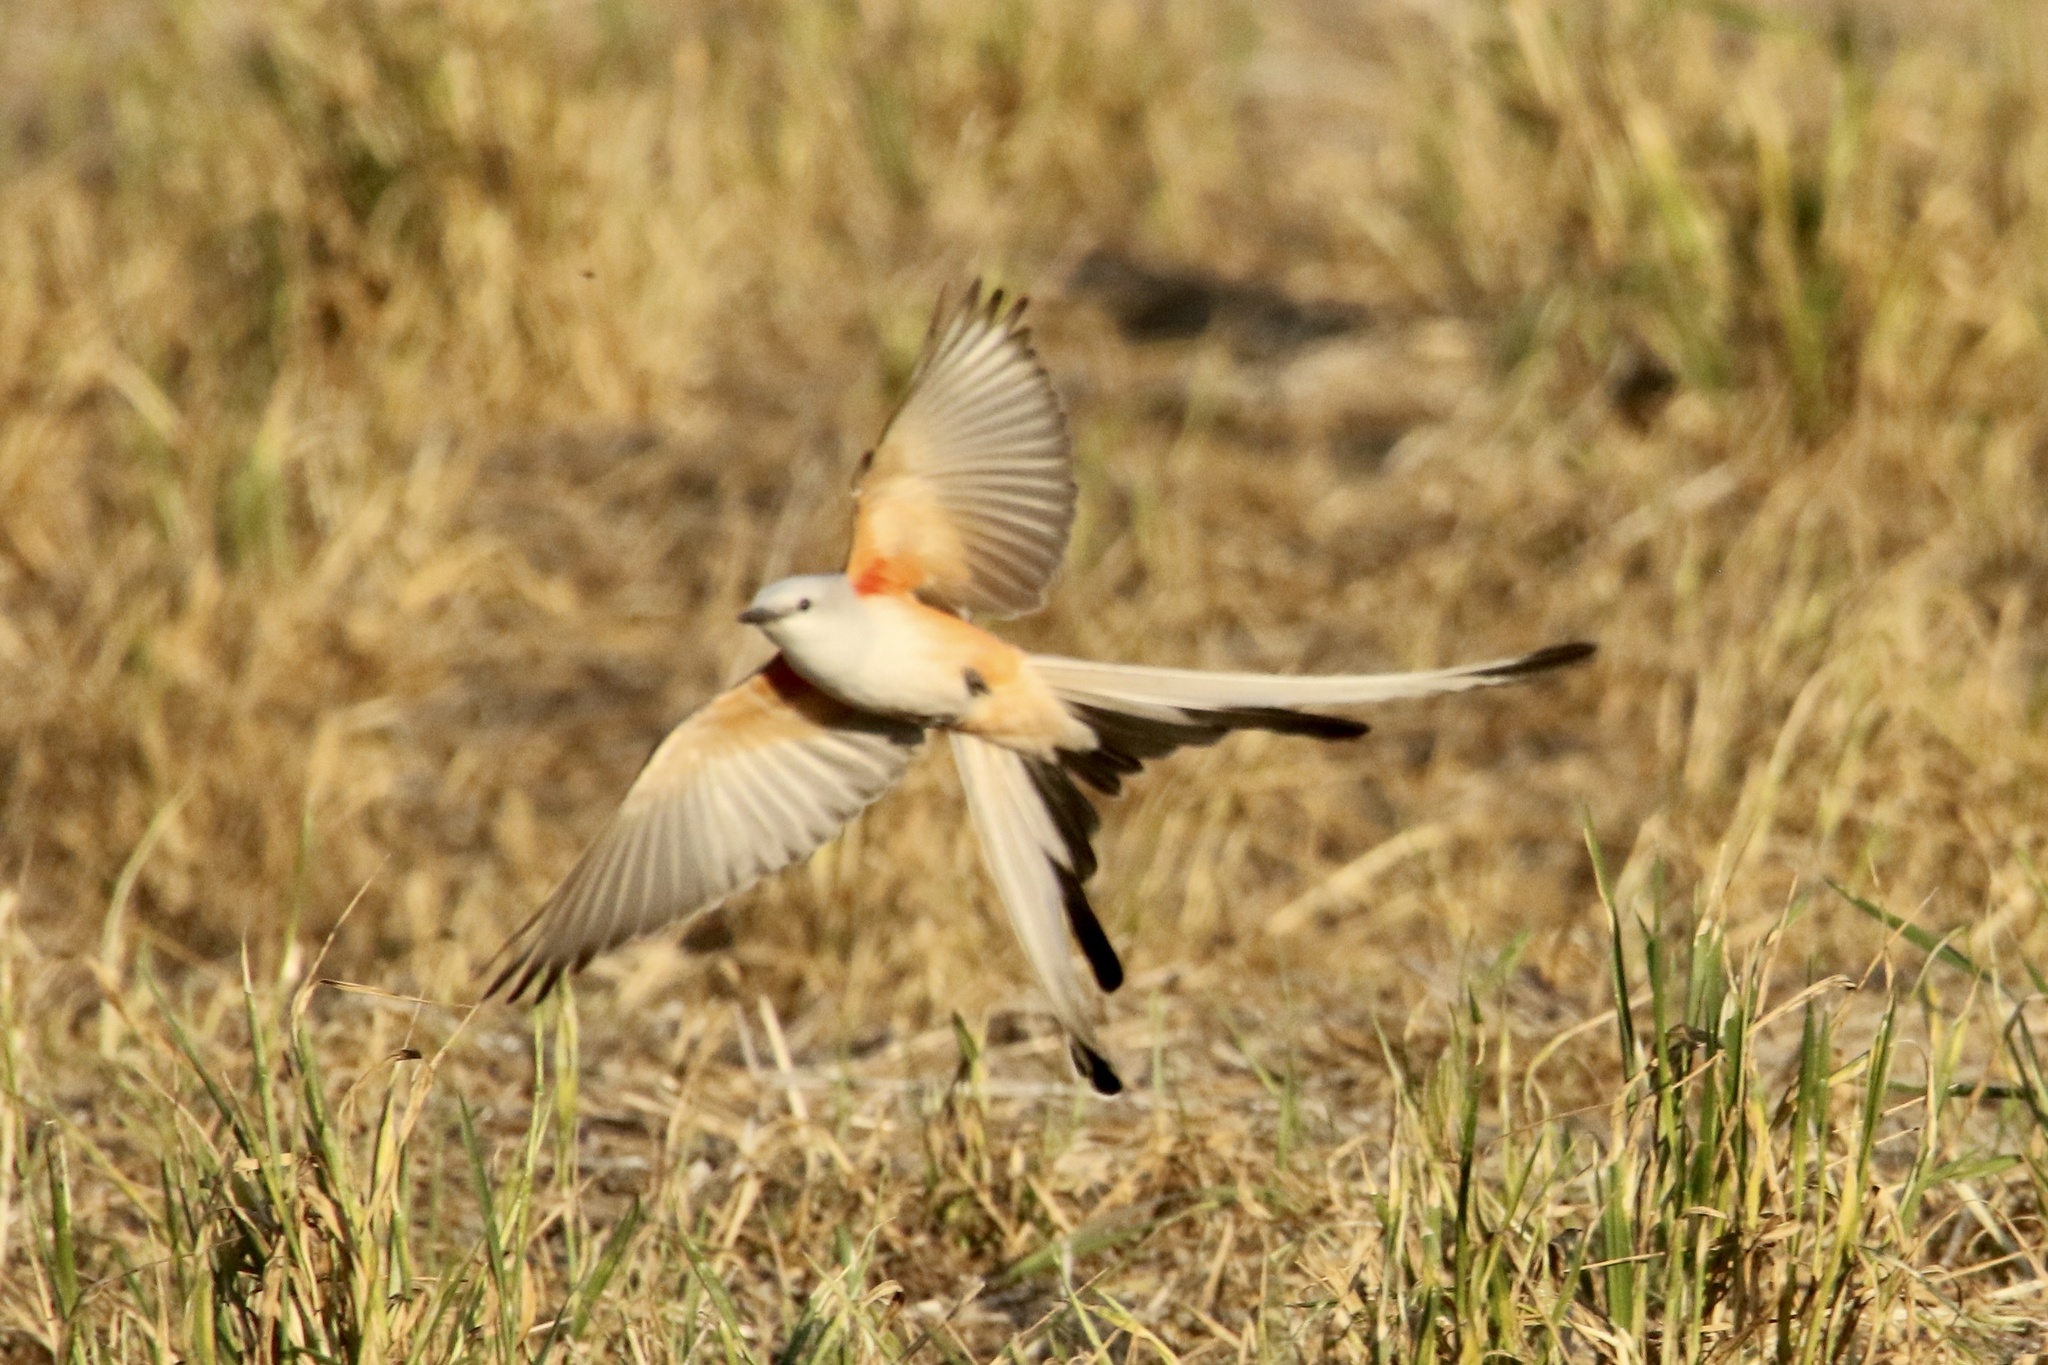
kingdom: Animalia
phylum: Chordata
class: Aves
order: Passeriformes
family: Tyrannidae
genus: Tyrannus
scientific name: Tyrannus forficatus
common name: Scissor-tailed flycatcher
